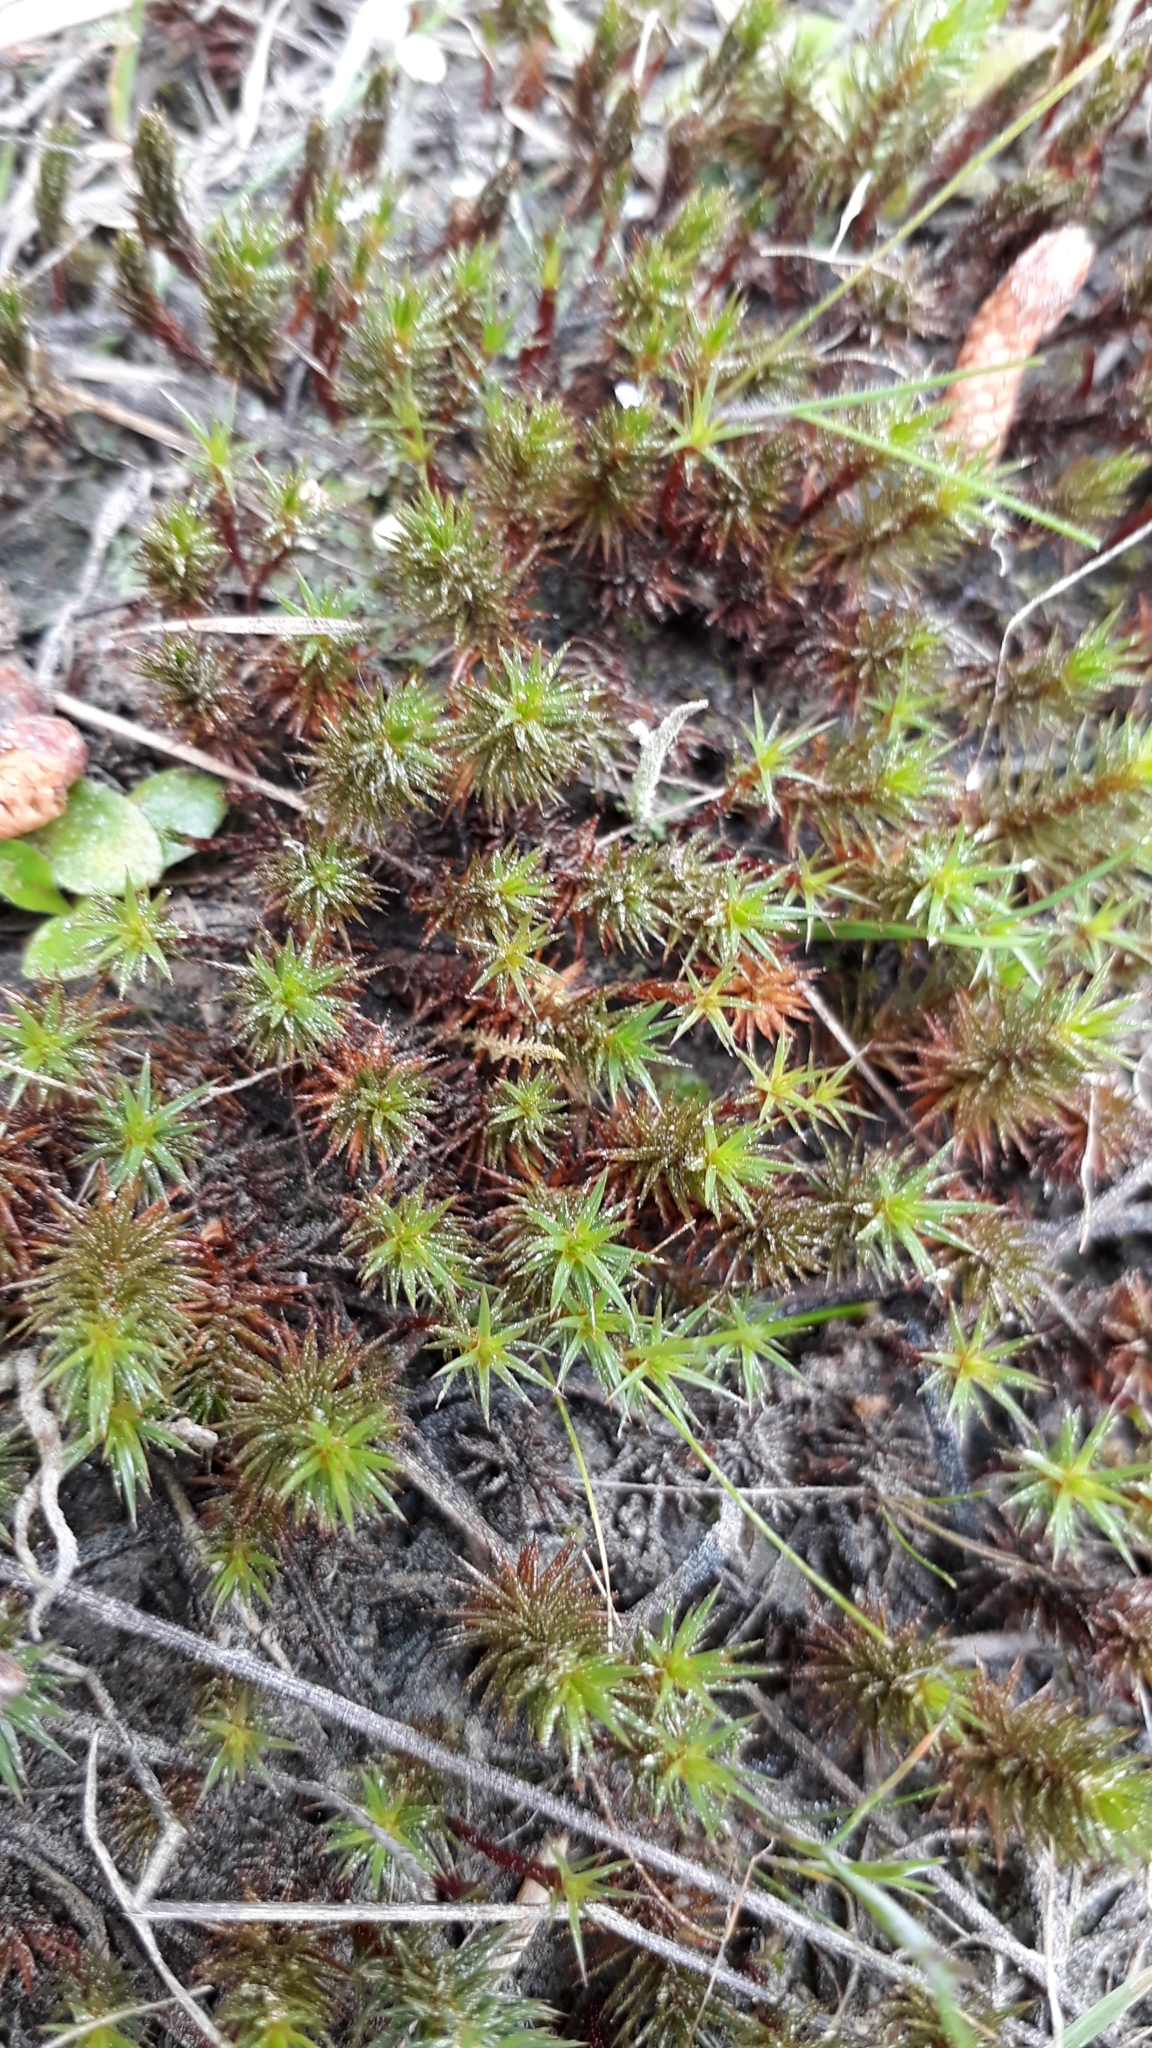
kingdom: Plantae
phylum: Bryophyta
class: Polytrichopsida
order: Polytrichales
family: Polytrichaceae
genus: Polytrichum
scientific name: Polytrichum juniperinum
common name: Juniper haircap moss
